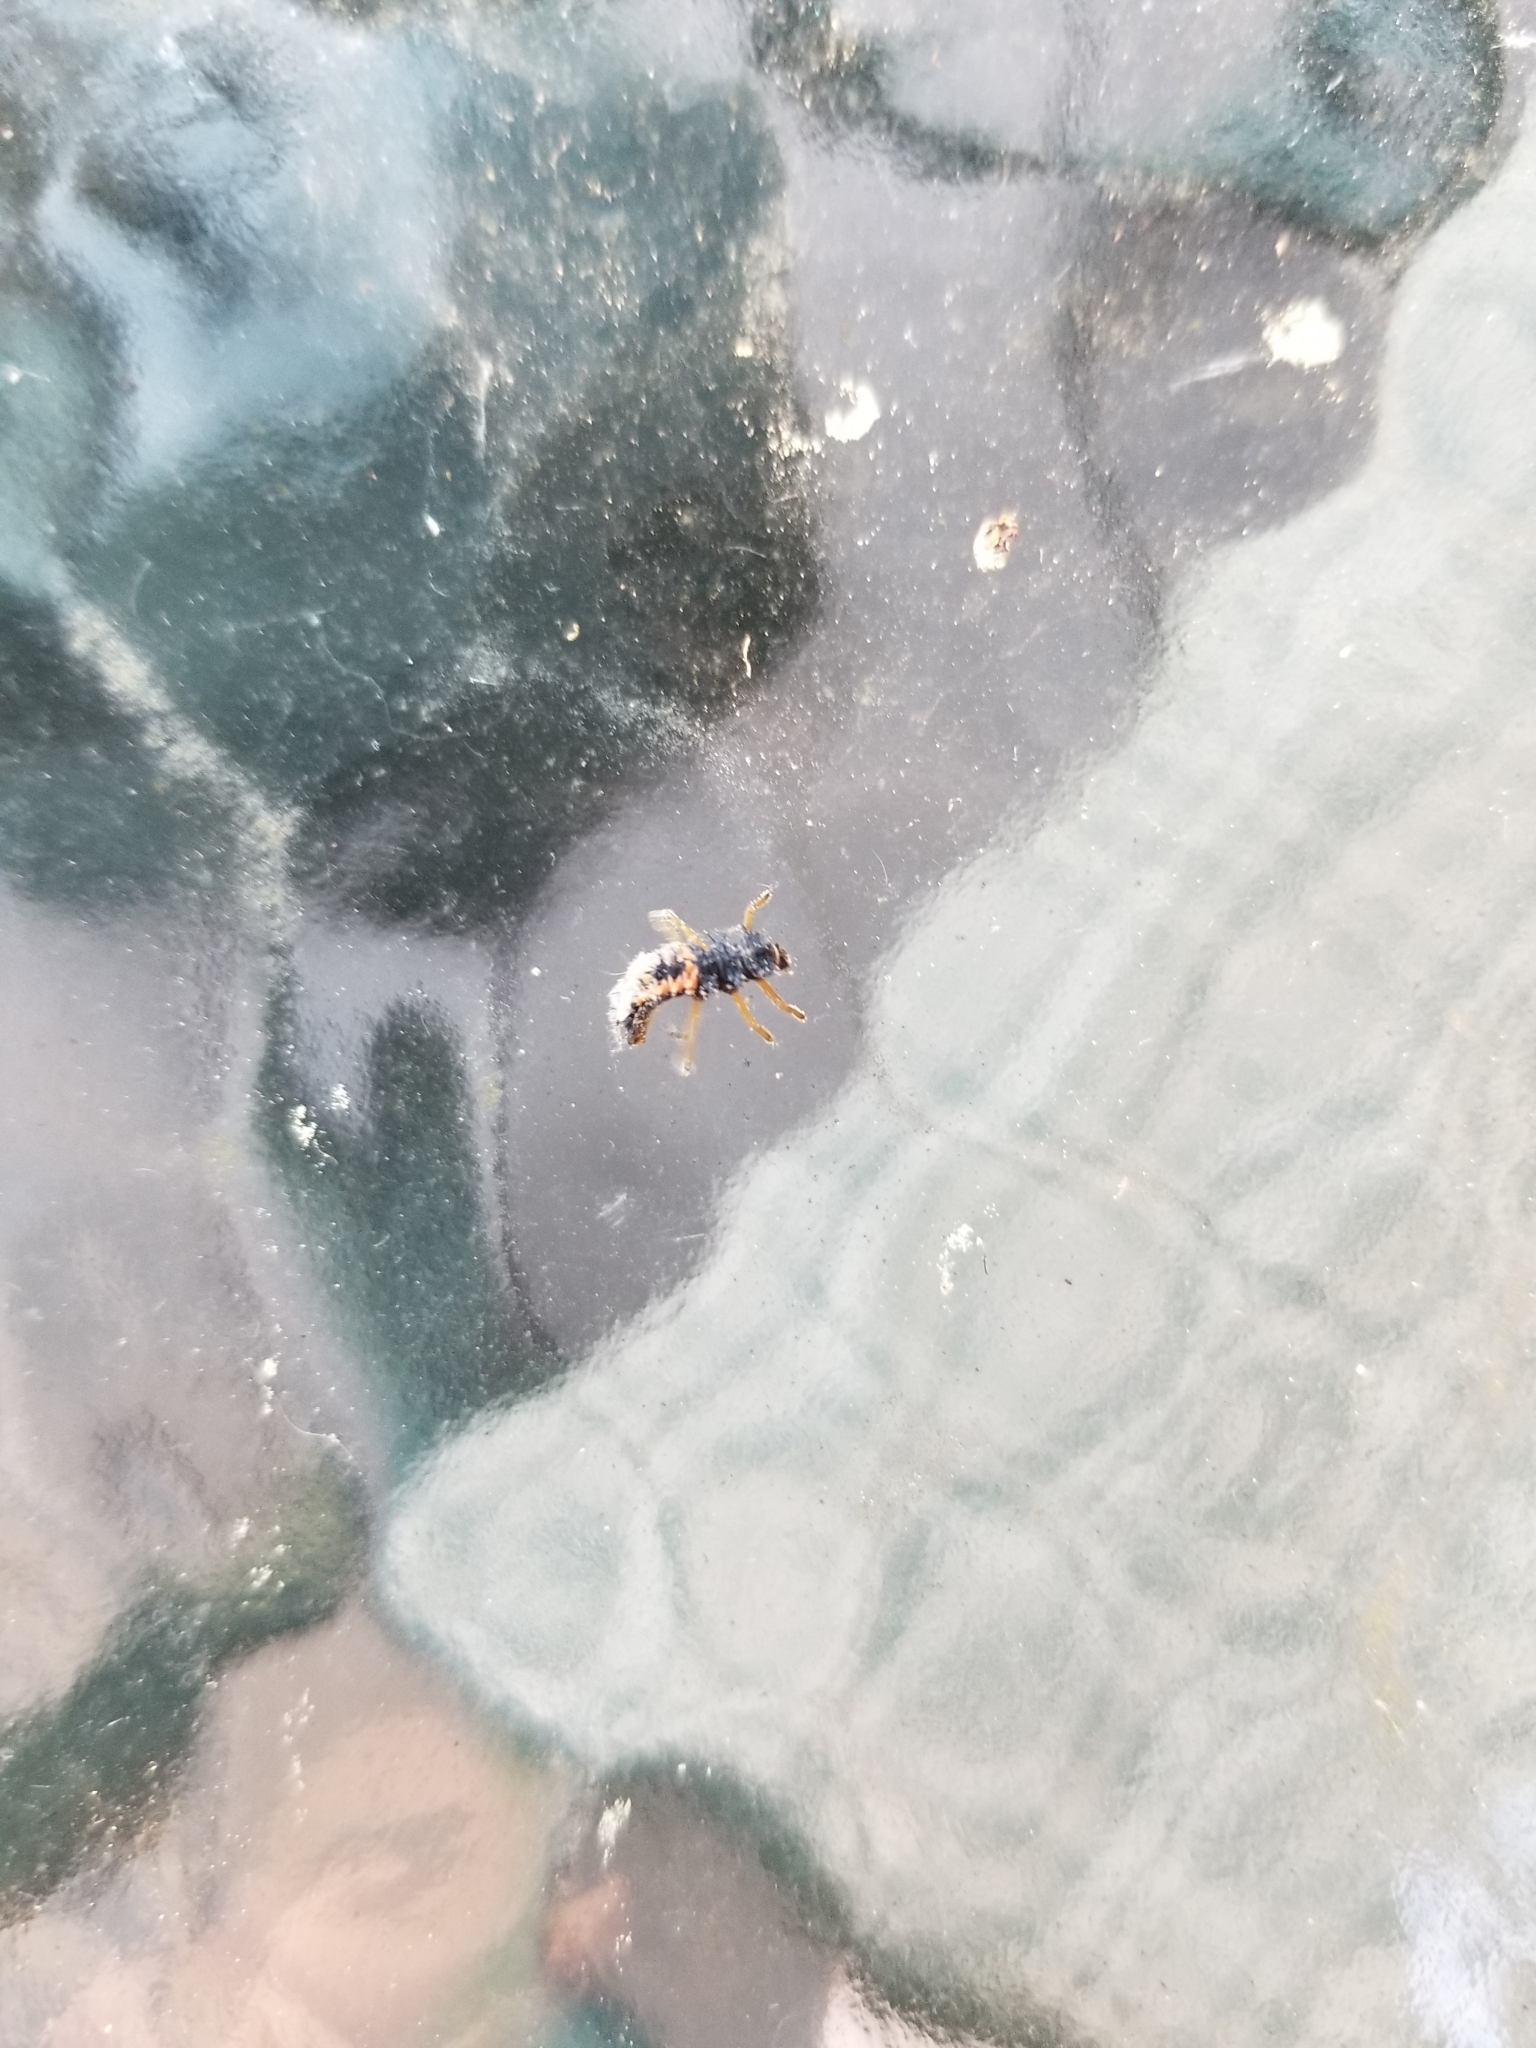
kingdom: Animalia
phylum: Arthropoda
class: Insecta
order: Coleoptera
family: Coccinellidae
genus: Harmonia
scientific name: Harmonia axyridis
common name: Harlequin ladybird
